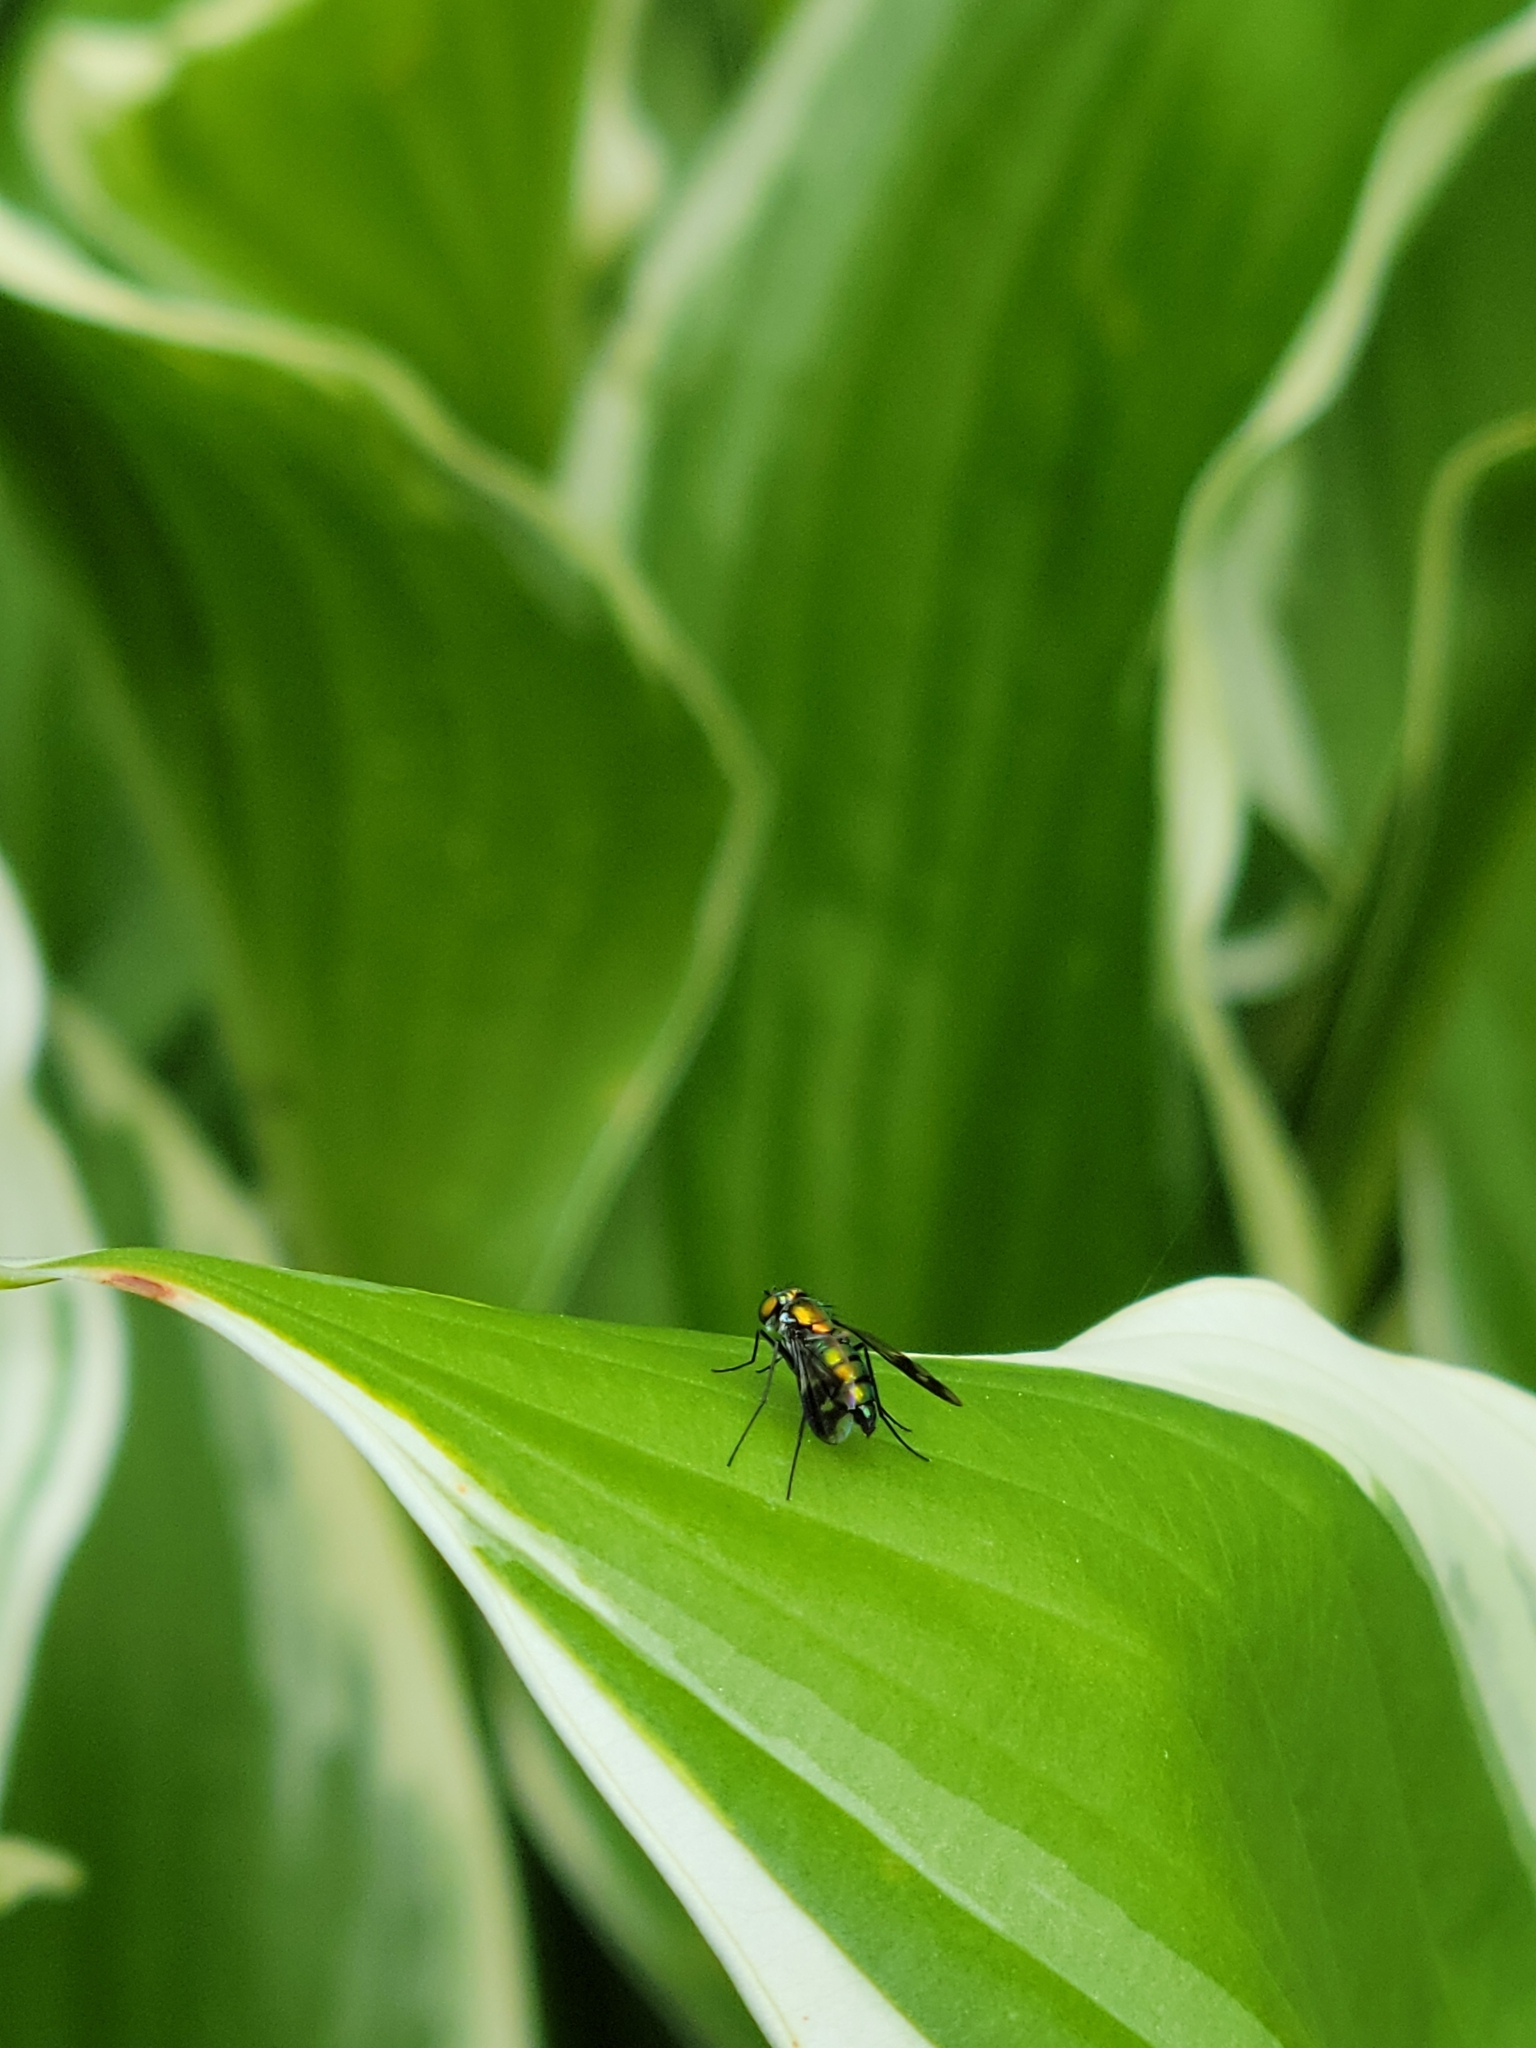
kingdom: Animalia
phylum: Arthropoda
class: Insecta
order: Diptera
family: Dolichopodidae
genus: Condylostylus
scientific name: Condylostylus patibulatus
